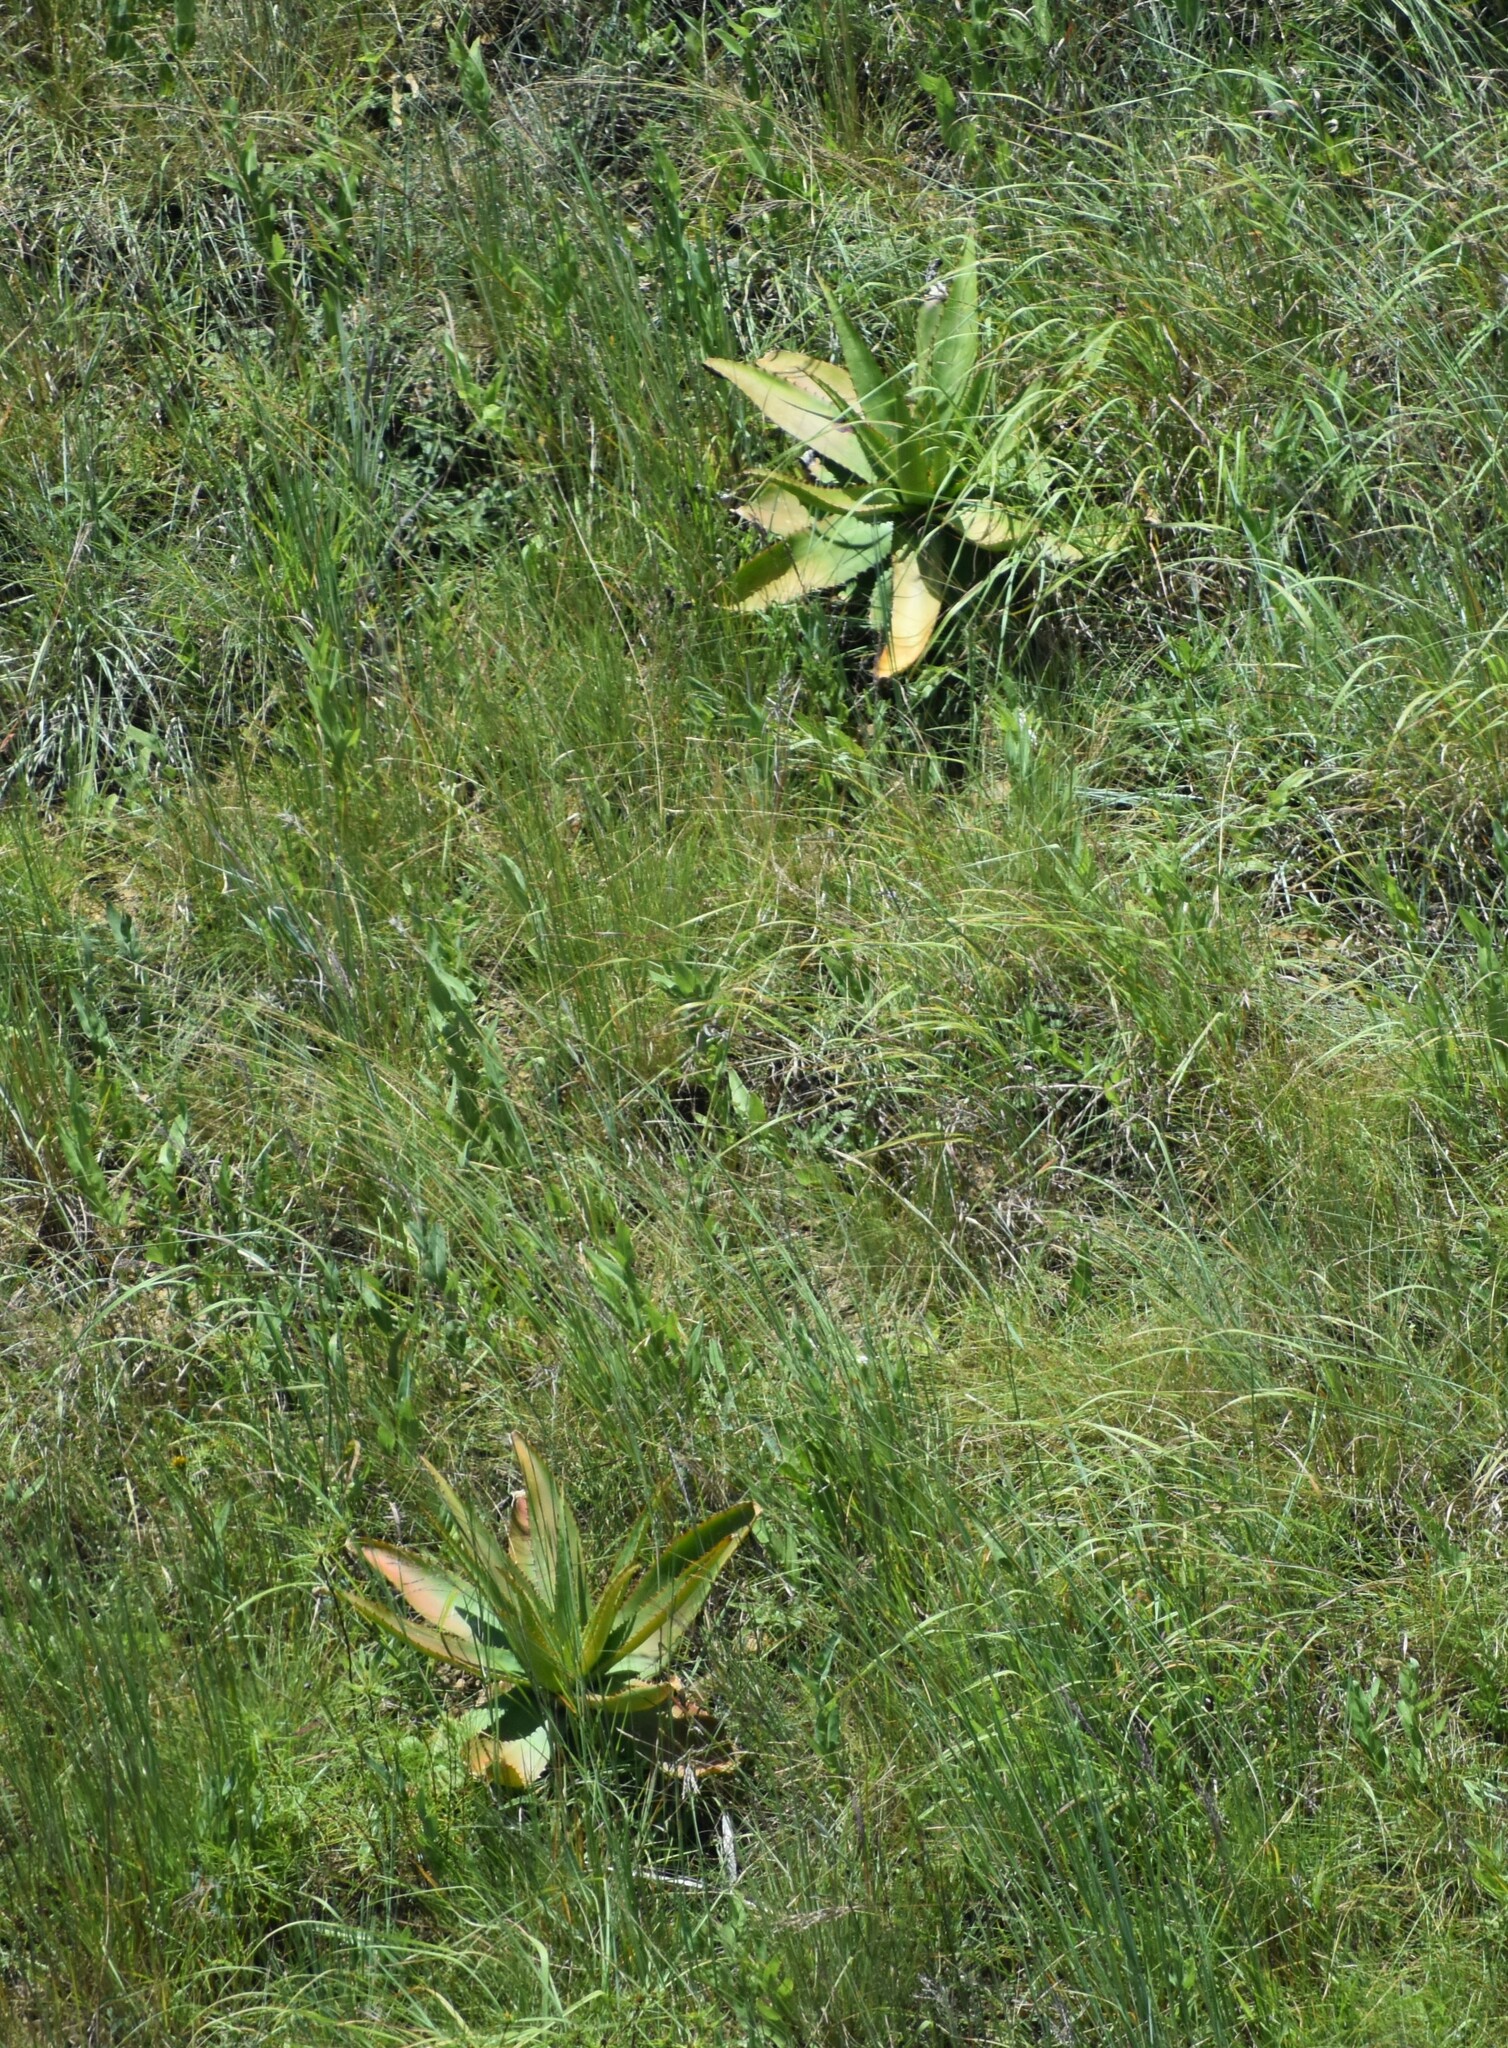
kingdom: Plantae
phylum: Tracheophyta
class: Liliopsida
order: Asparagales
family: Asphodelaceae
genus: Aloe
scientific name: Aloe affinis
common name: Spotted aloe
